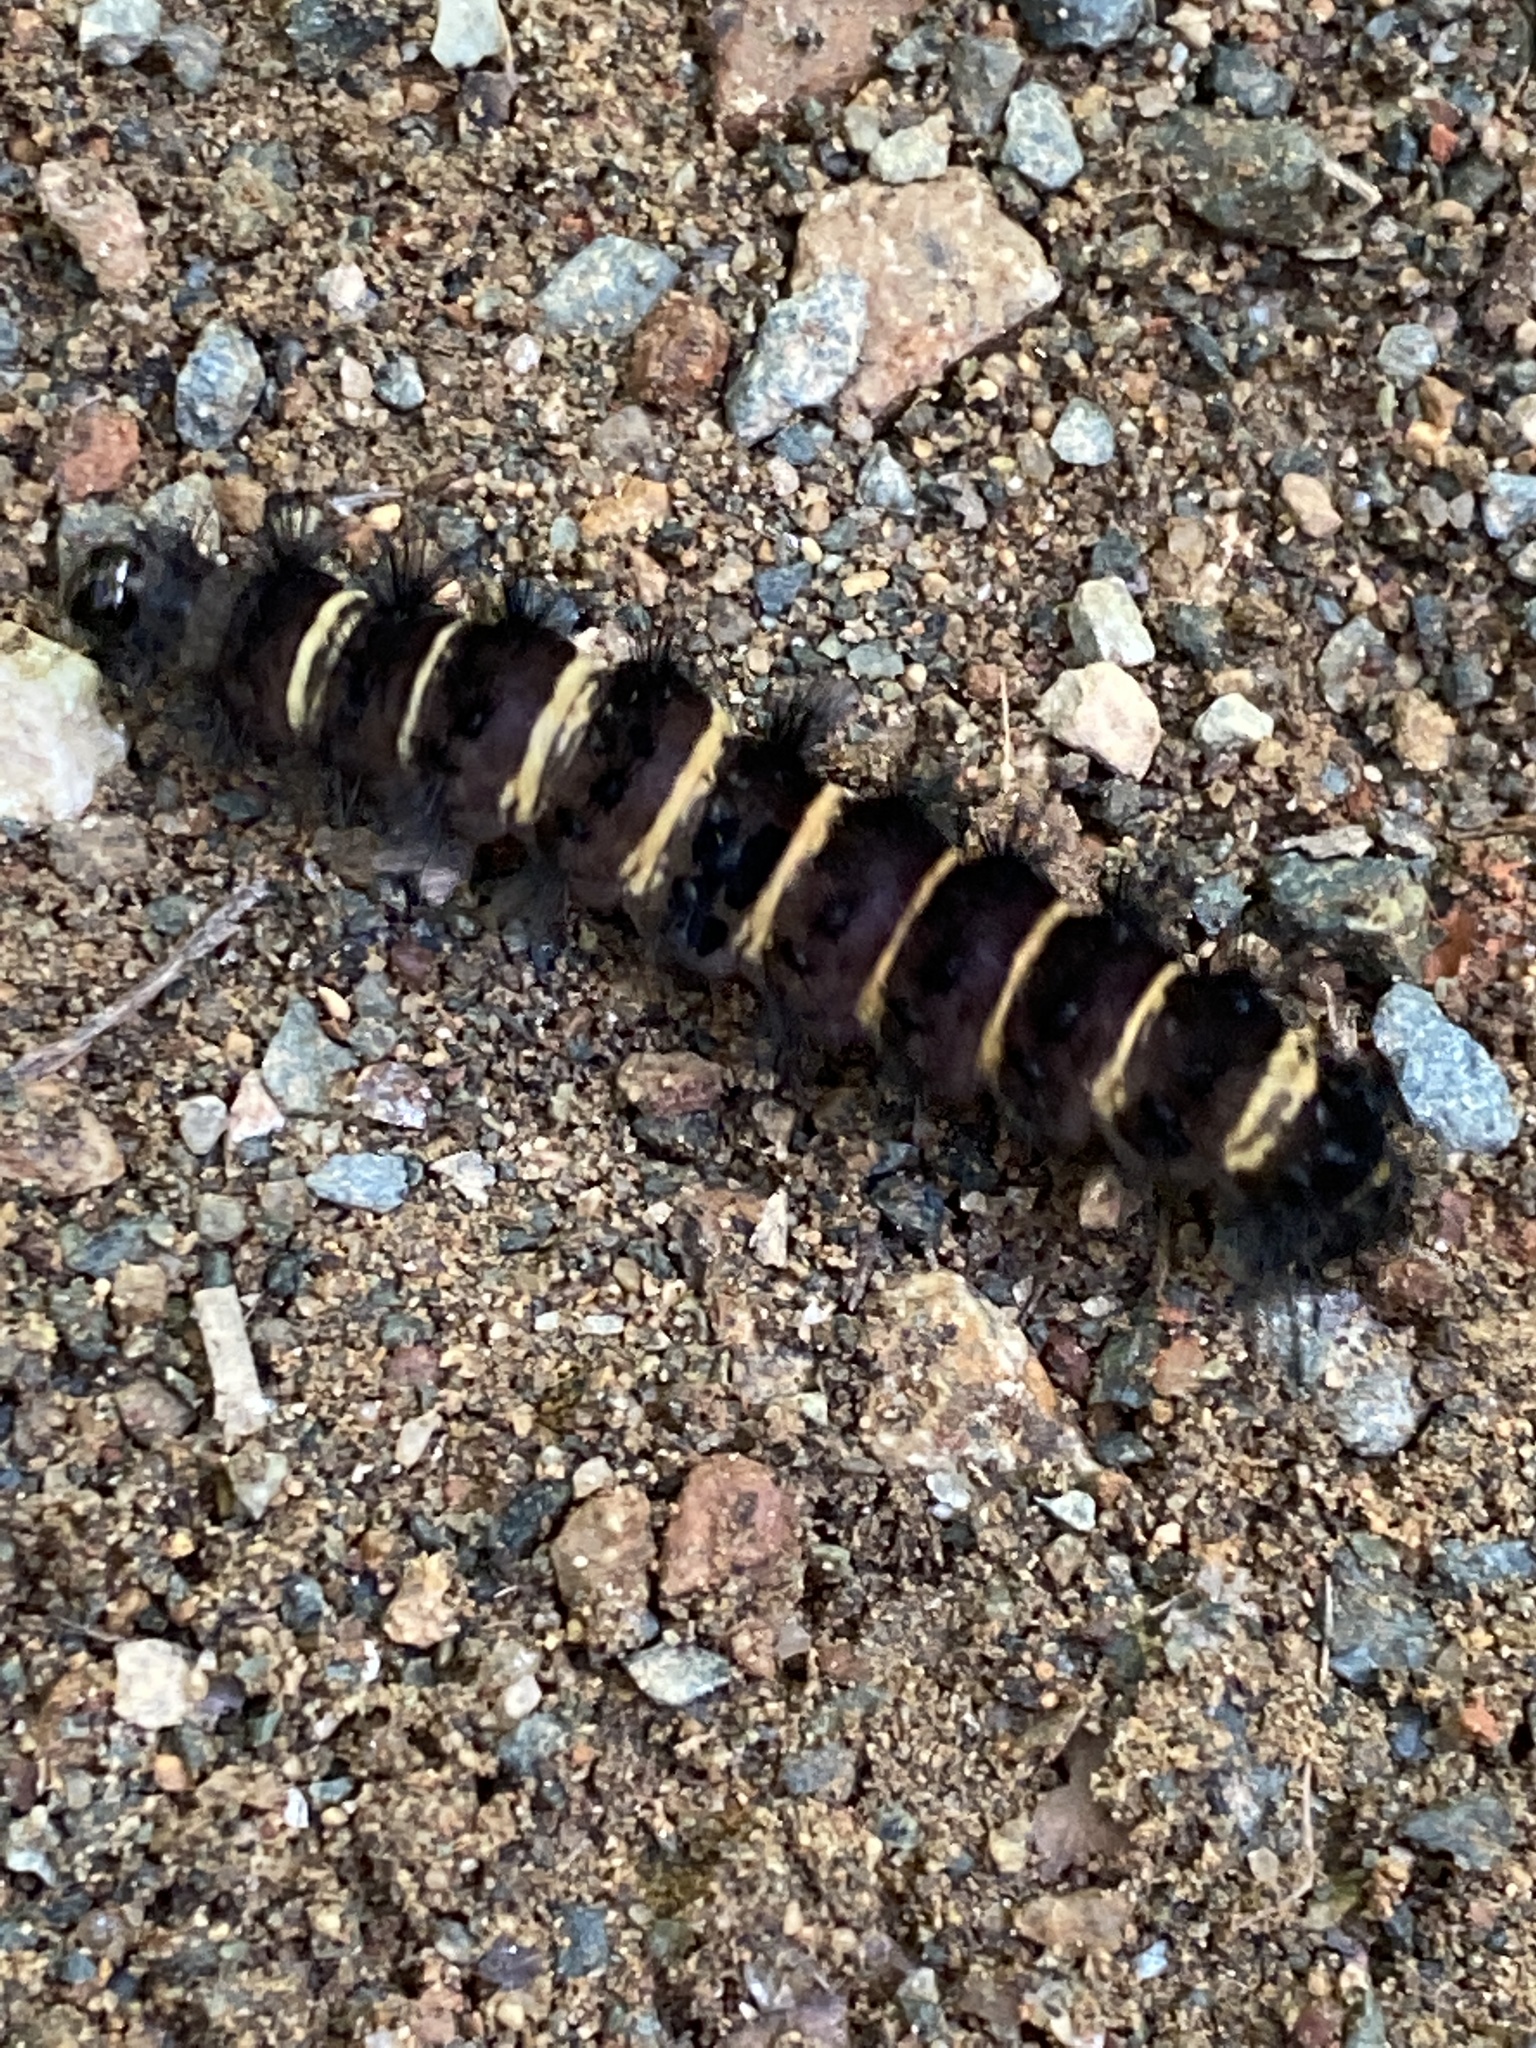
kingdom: Animalia
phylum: Arthropoda
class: Insecta
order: Lepidoptera
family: Erebidae
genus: Spilosoma
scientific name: Spilosoma congrua
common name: Agreeable tiger moth
